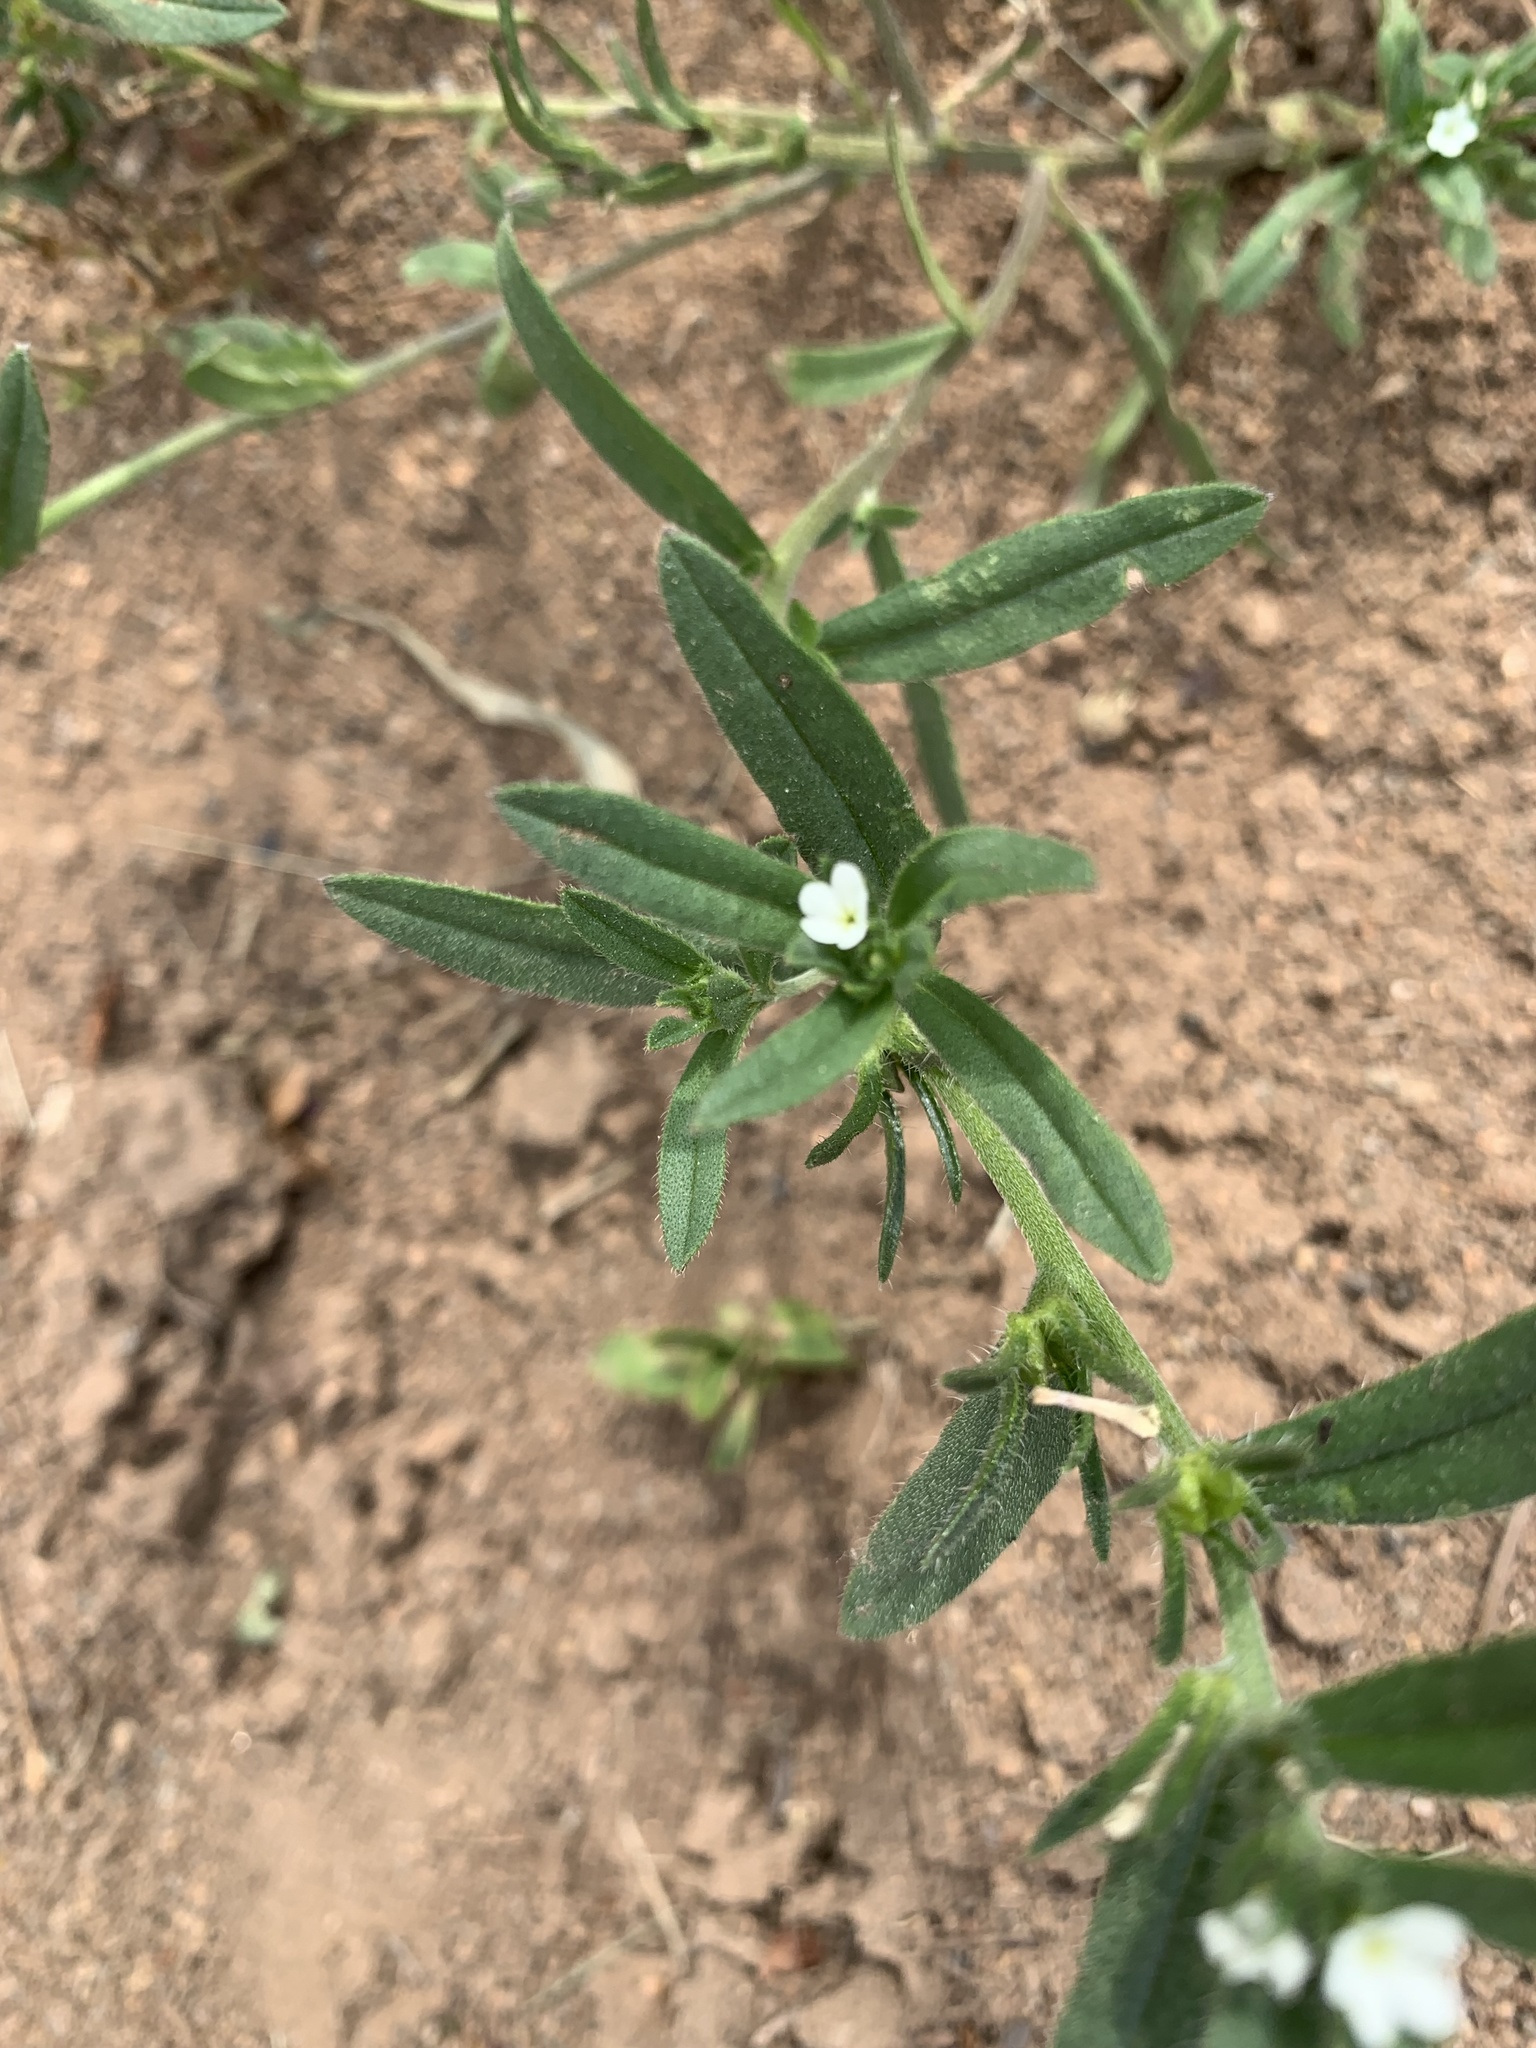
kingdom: Plantae
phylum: Tracheophyta
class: Magnoliopsida
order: Boraginales
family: Boraginaceae
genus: Buglossoides
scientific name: Buglossoides arvensis
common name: Corn gromwell
